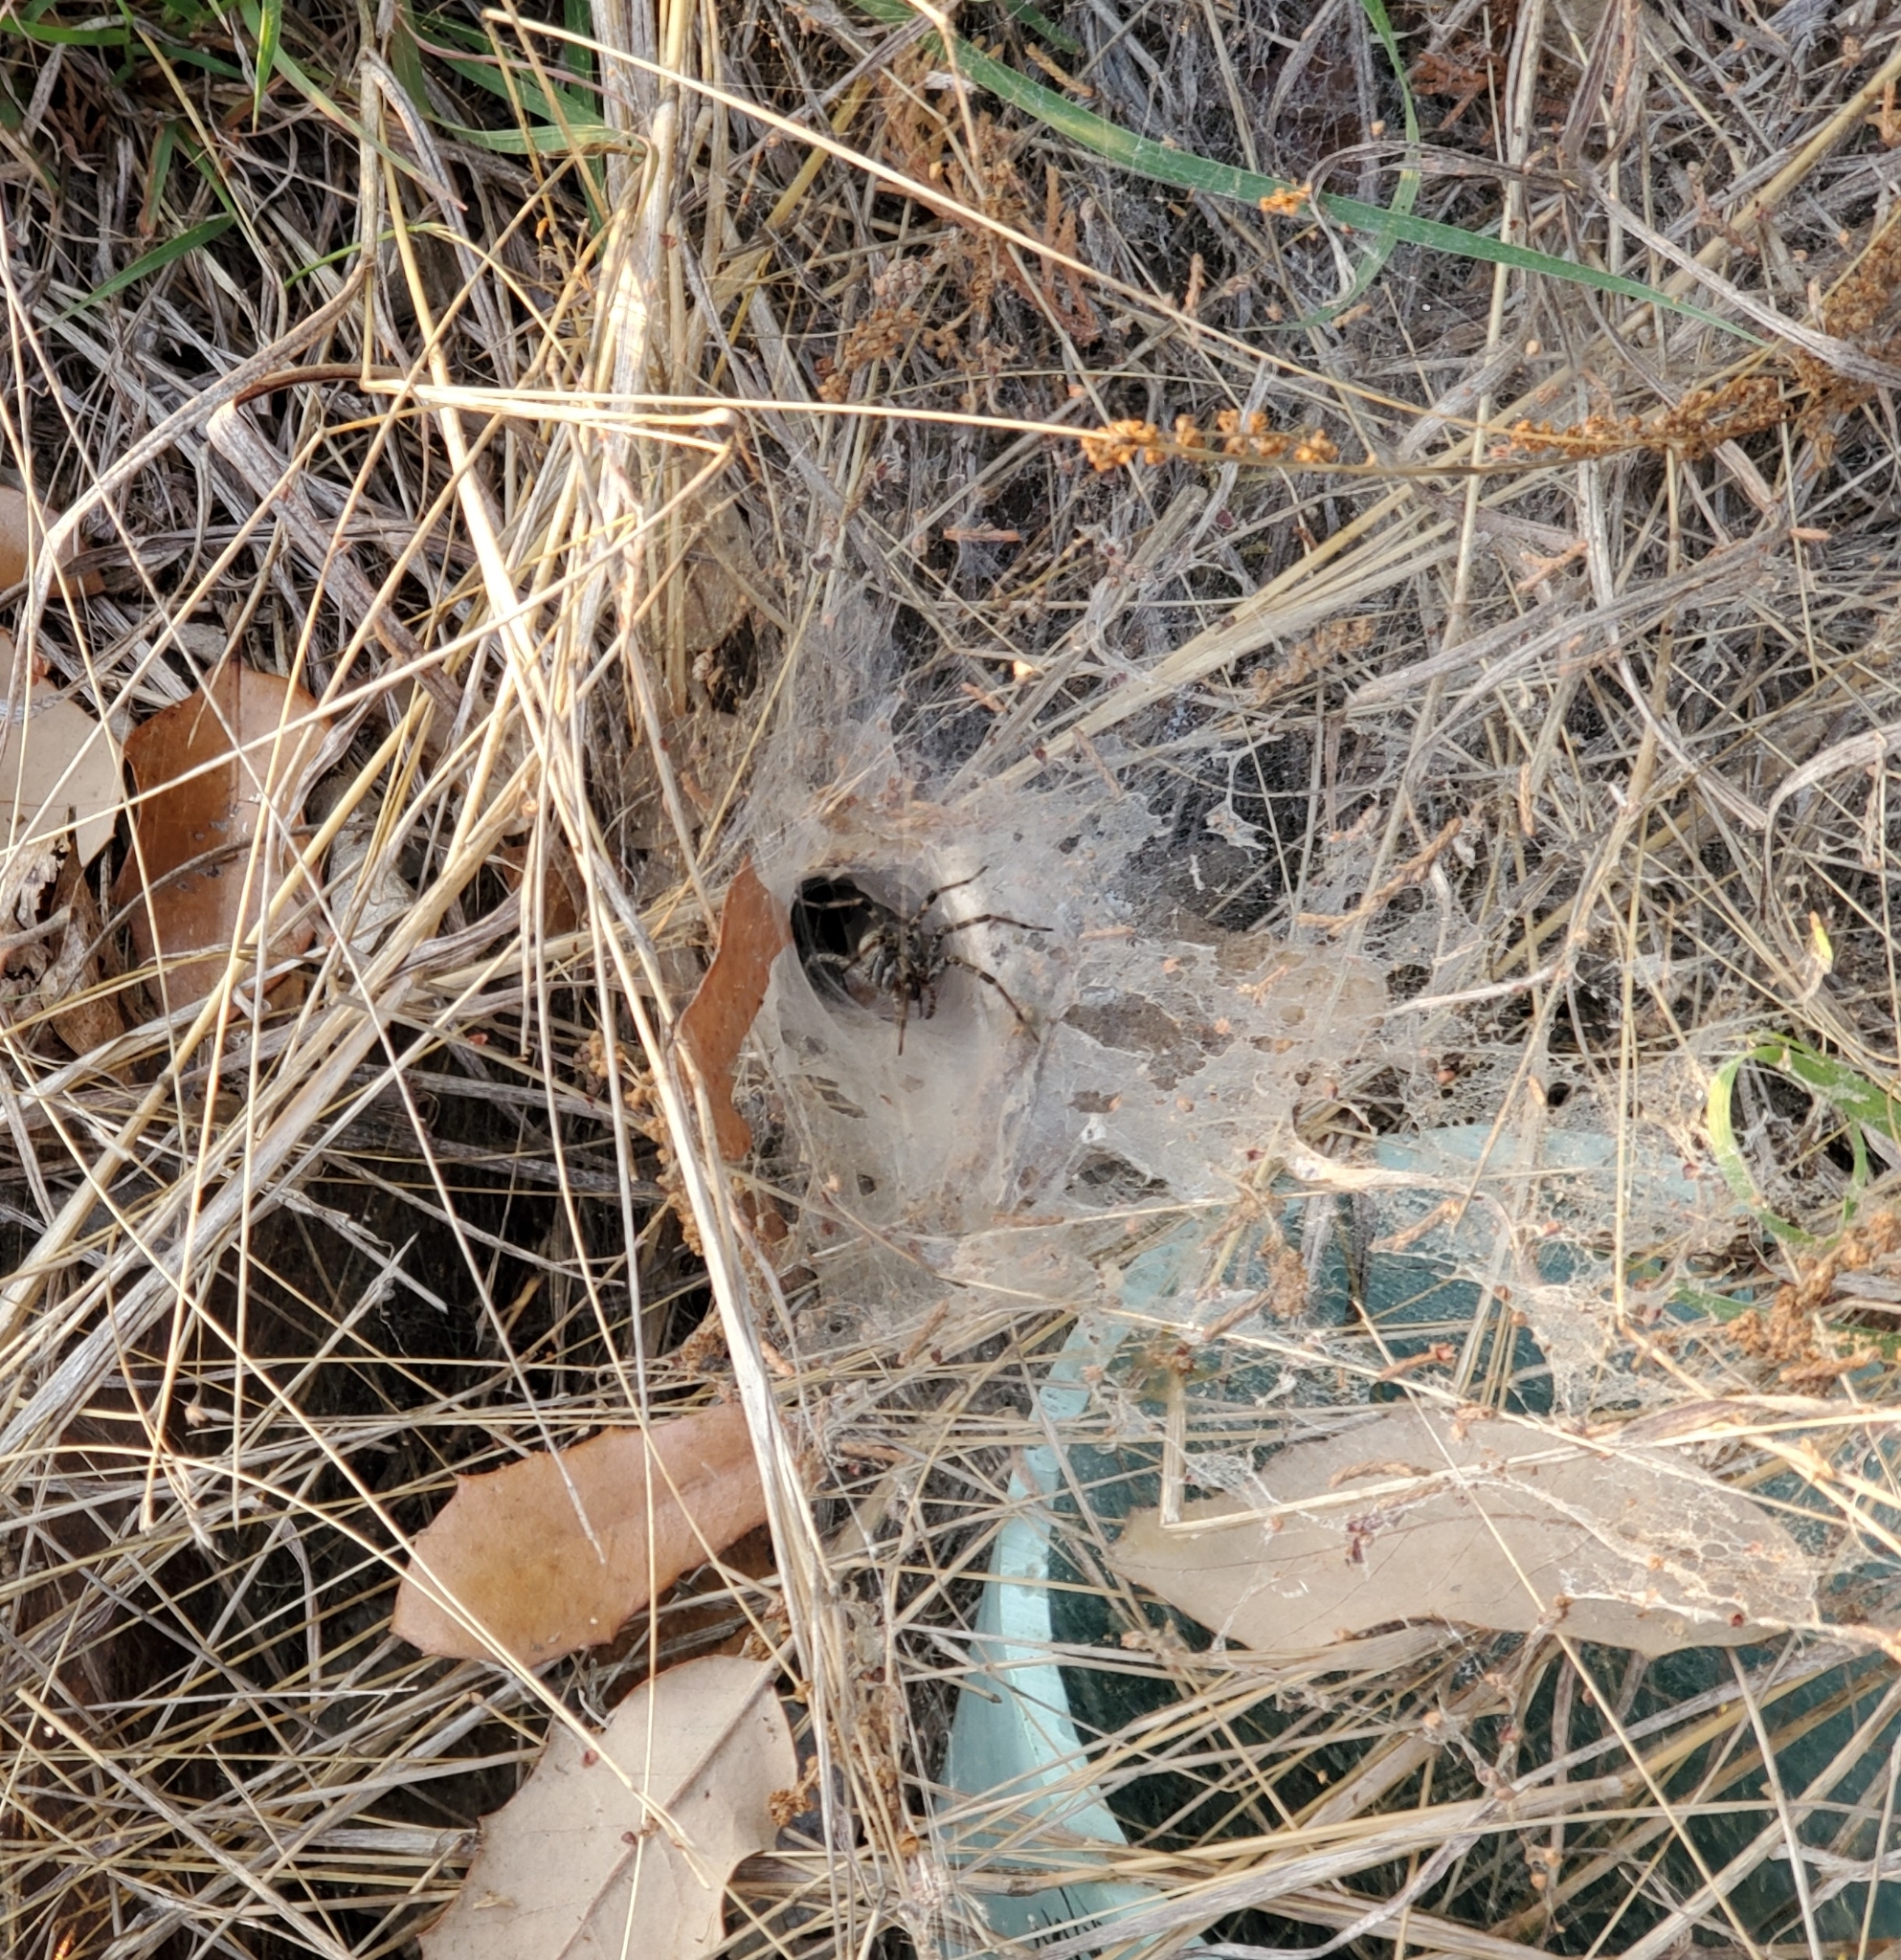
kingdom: Animalia
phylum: Arthropoda
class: Arachnida
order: Araneae
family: Agelenidae
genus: Agelenopsis
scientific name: Agelenopsis
